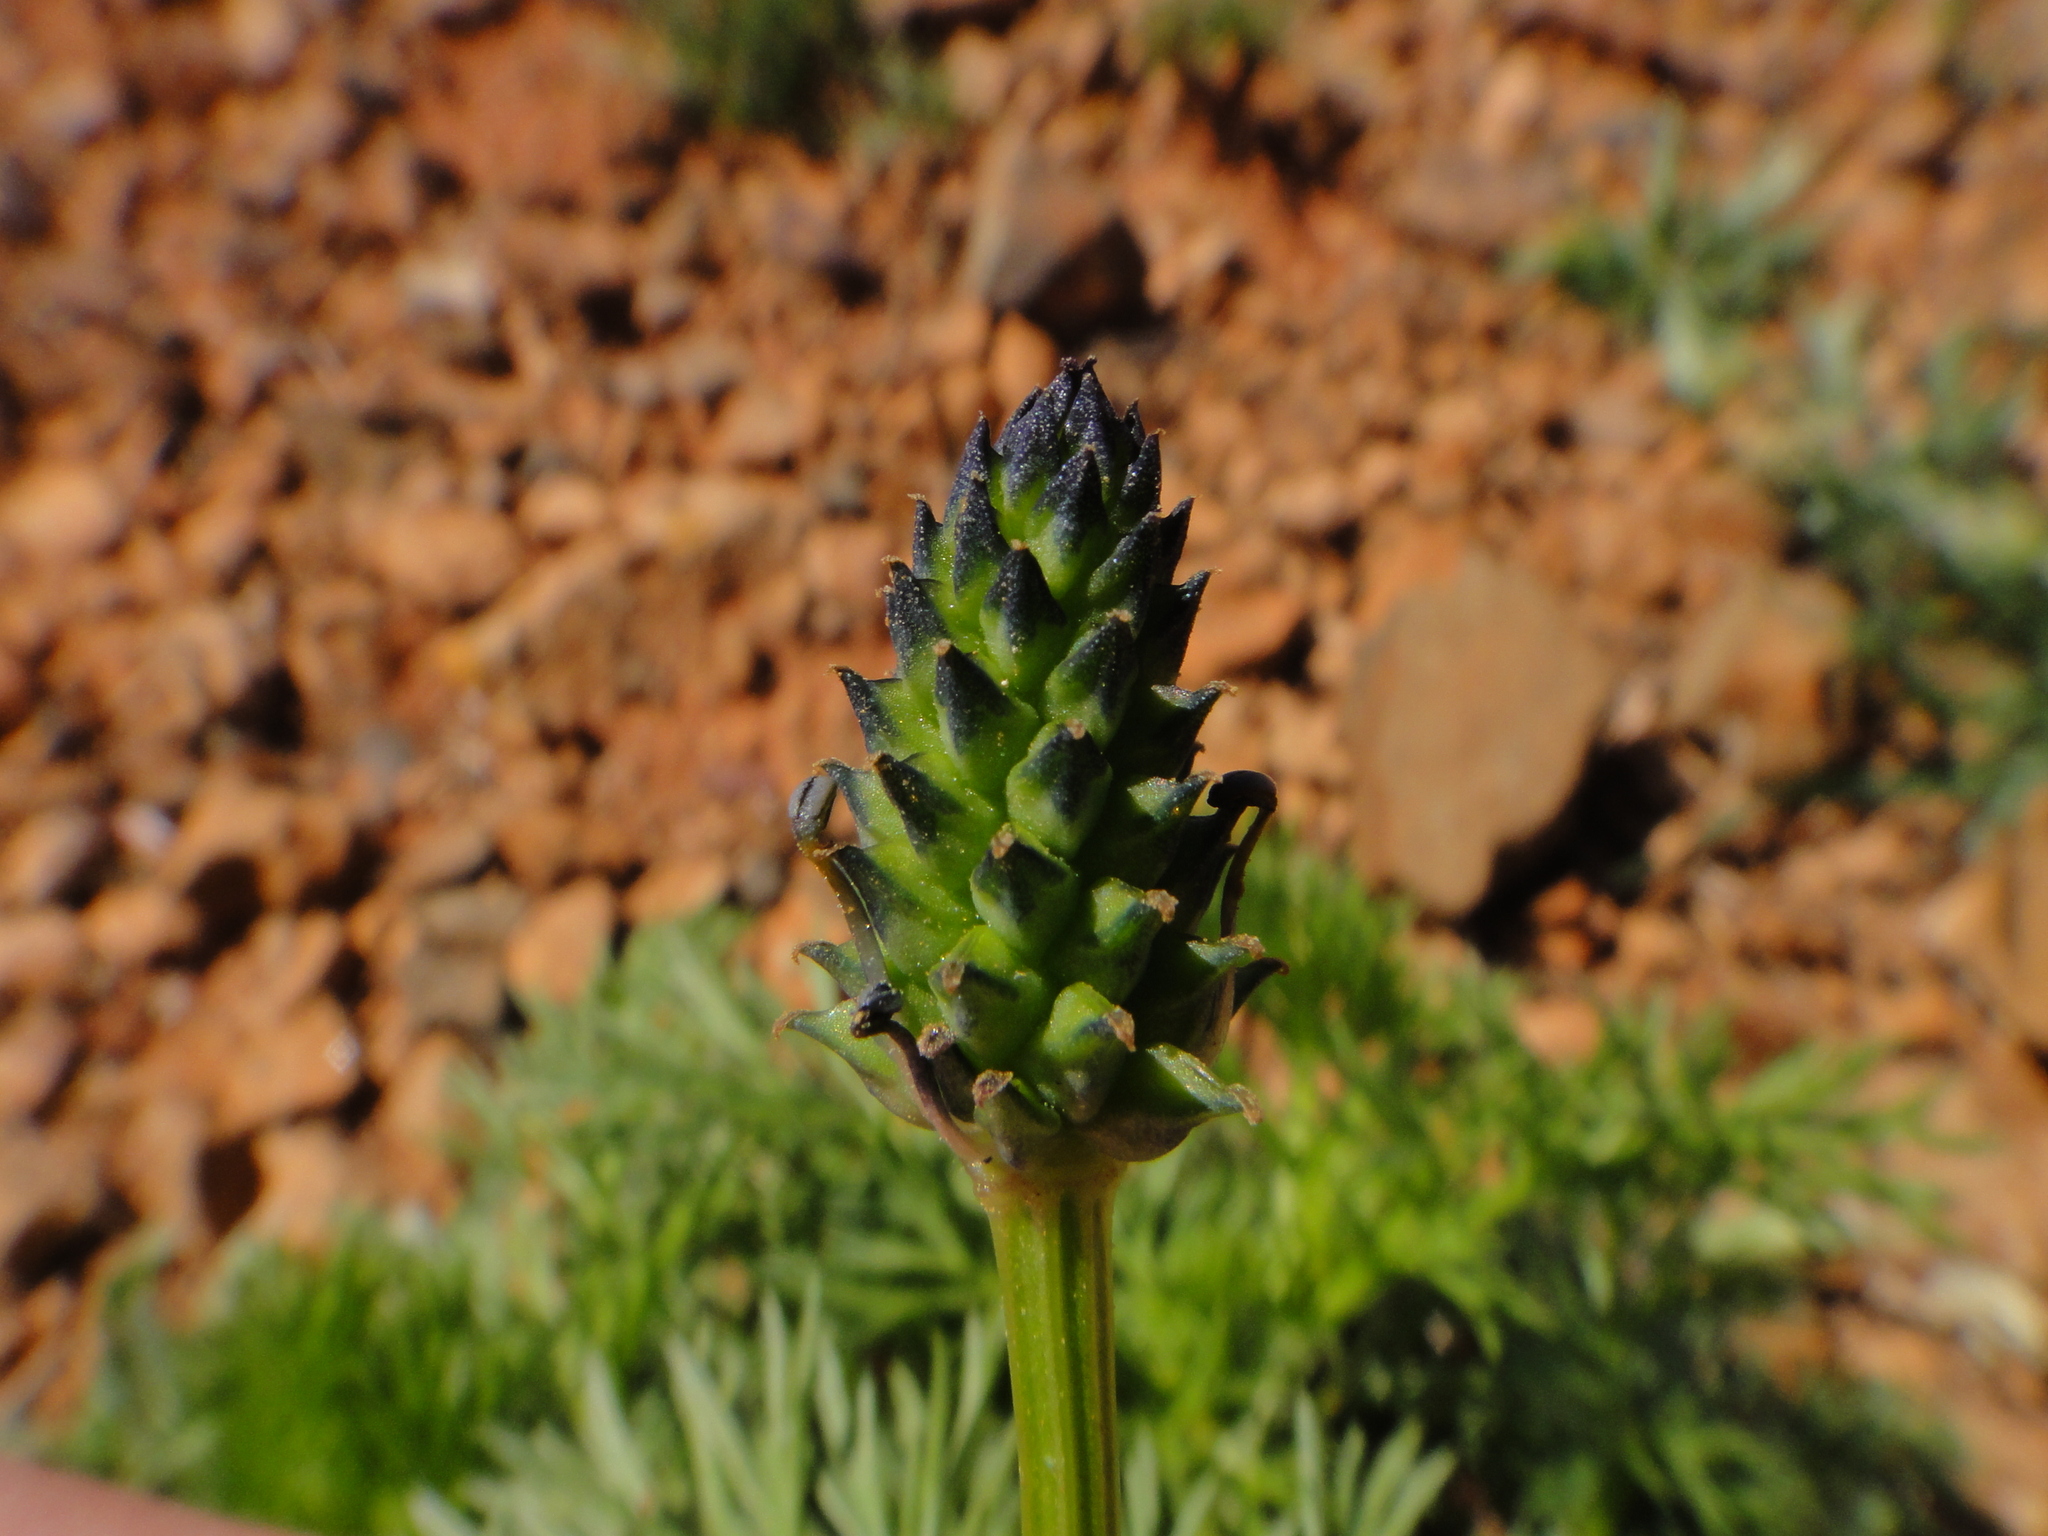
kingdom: Plantae
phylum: Tracheophyta
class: Magnoliopsida
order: Ranunculales
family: Ranunculaceae
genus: Adonis
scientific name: Adonis microcarpa
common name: Pheasant's-eye
